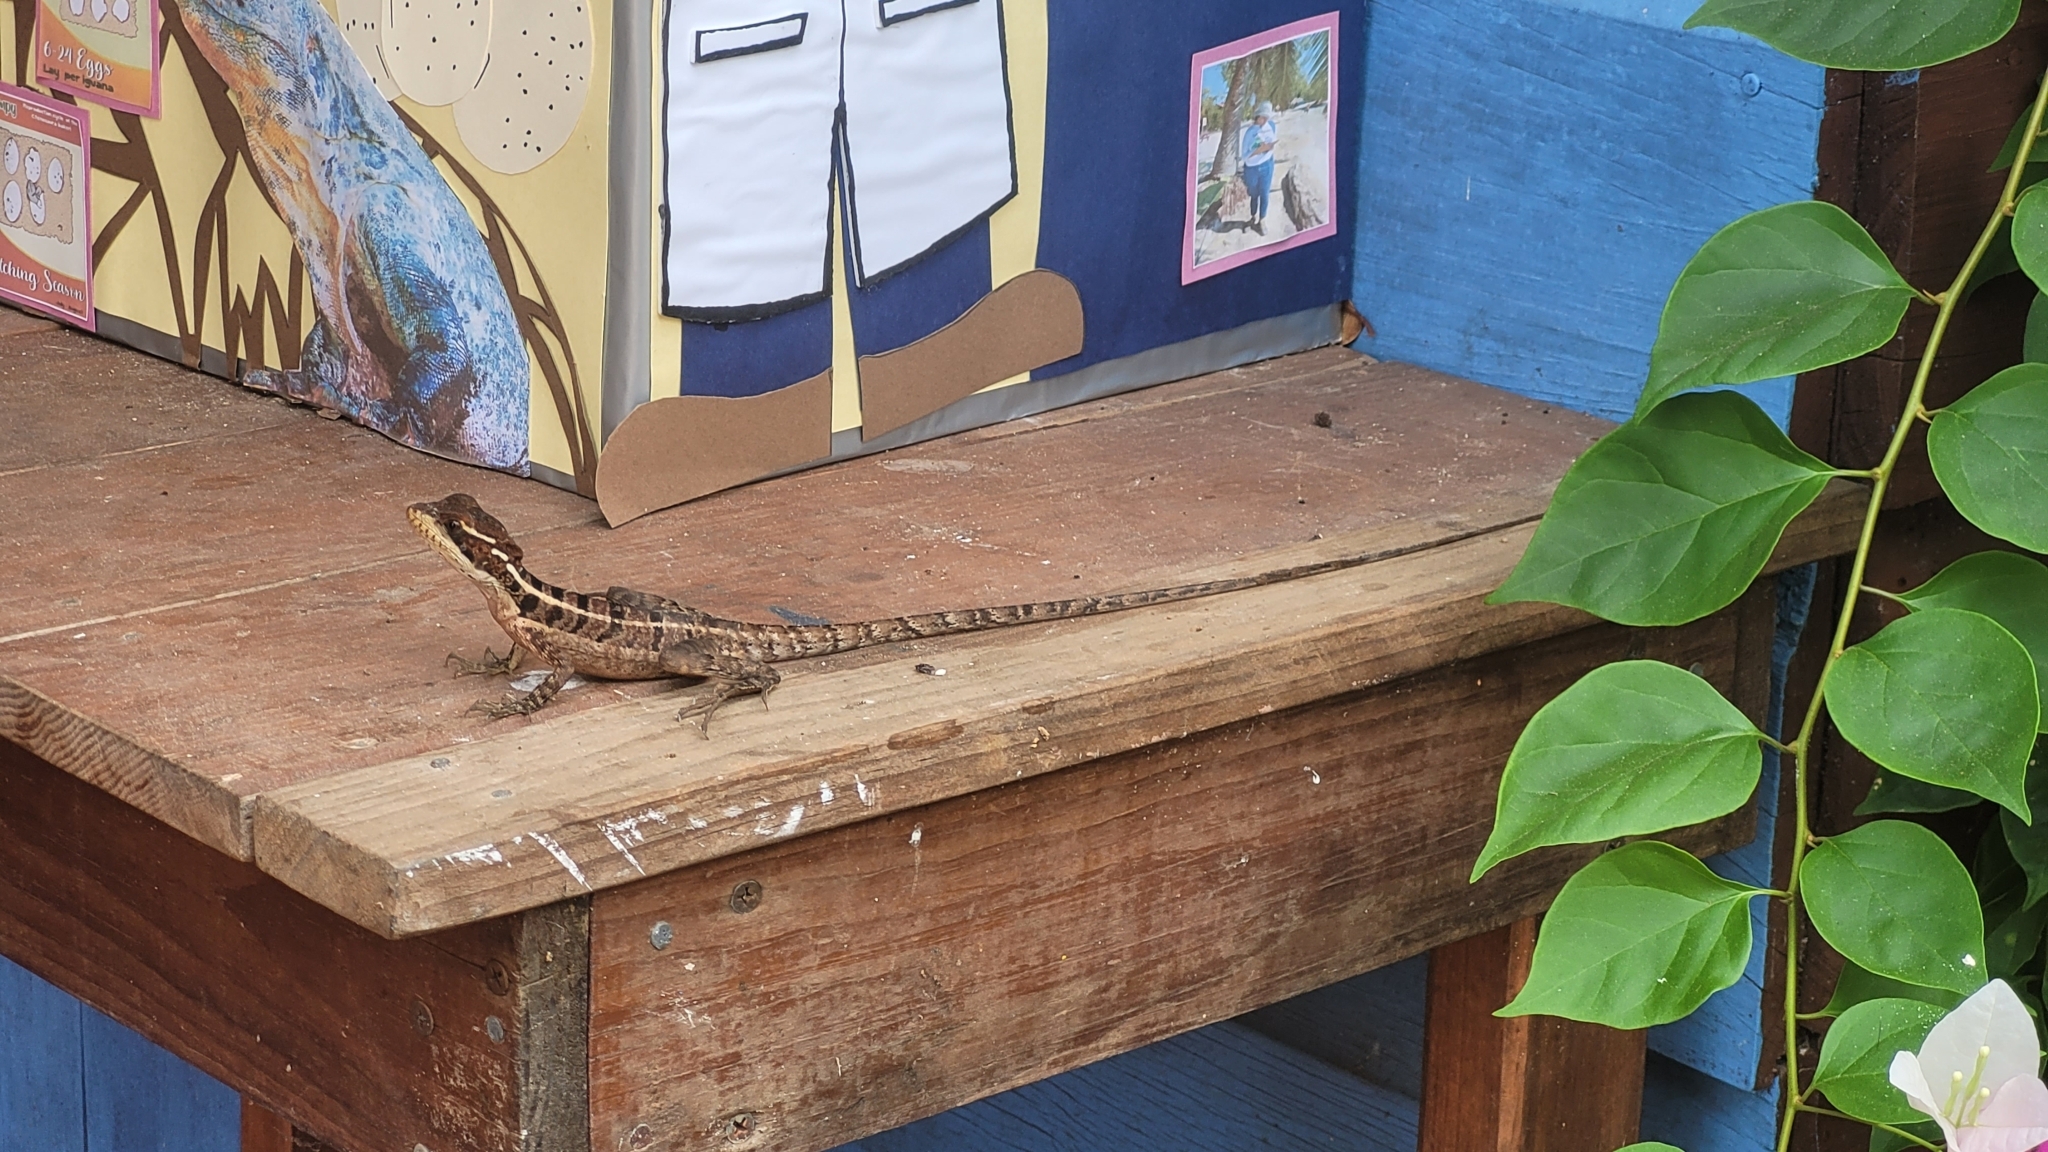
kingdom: Animalia
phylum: Chordata
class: Squamata
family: Corytophanidae
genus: Basiliscus
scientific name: Basiliscus vittatus
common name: Brown basilisk
